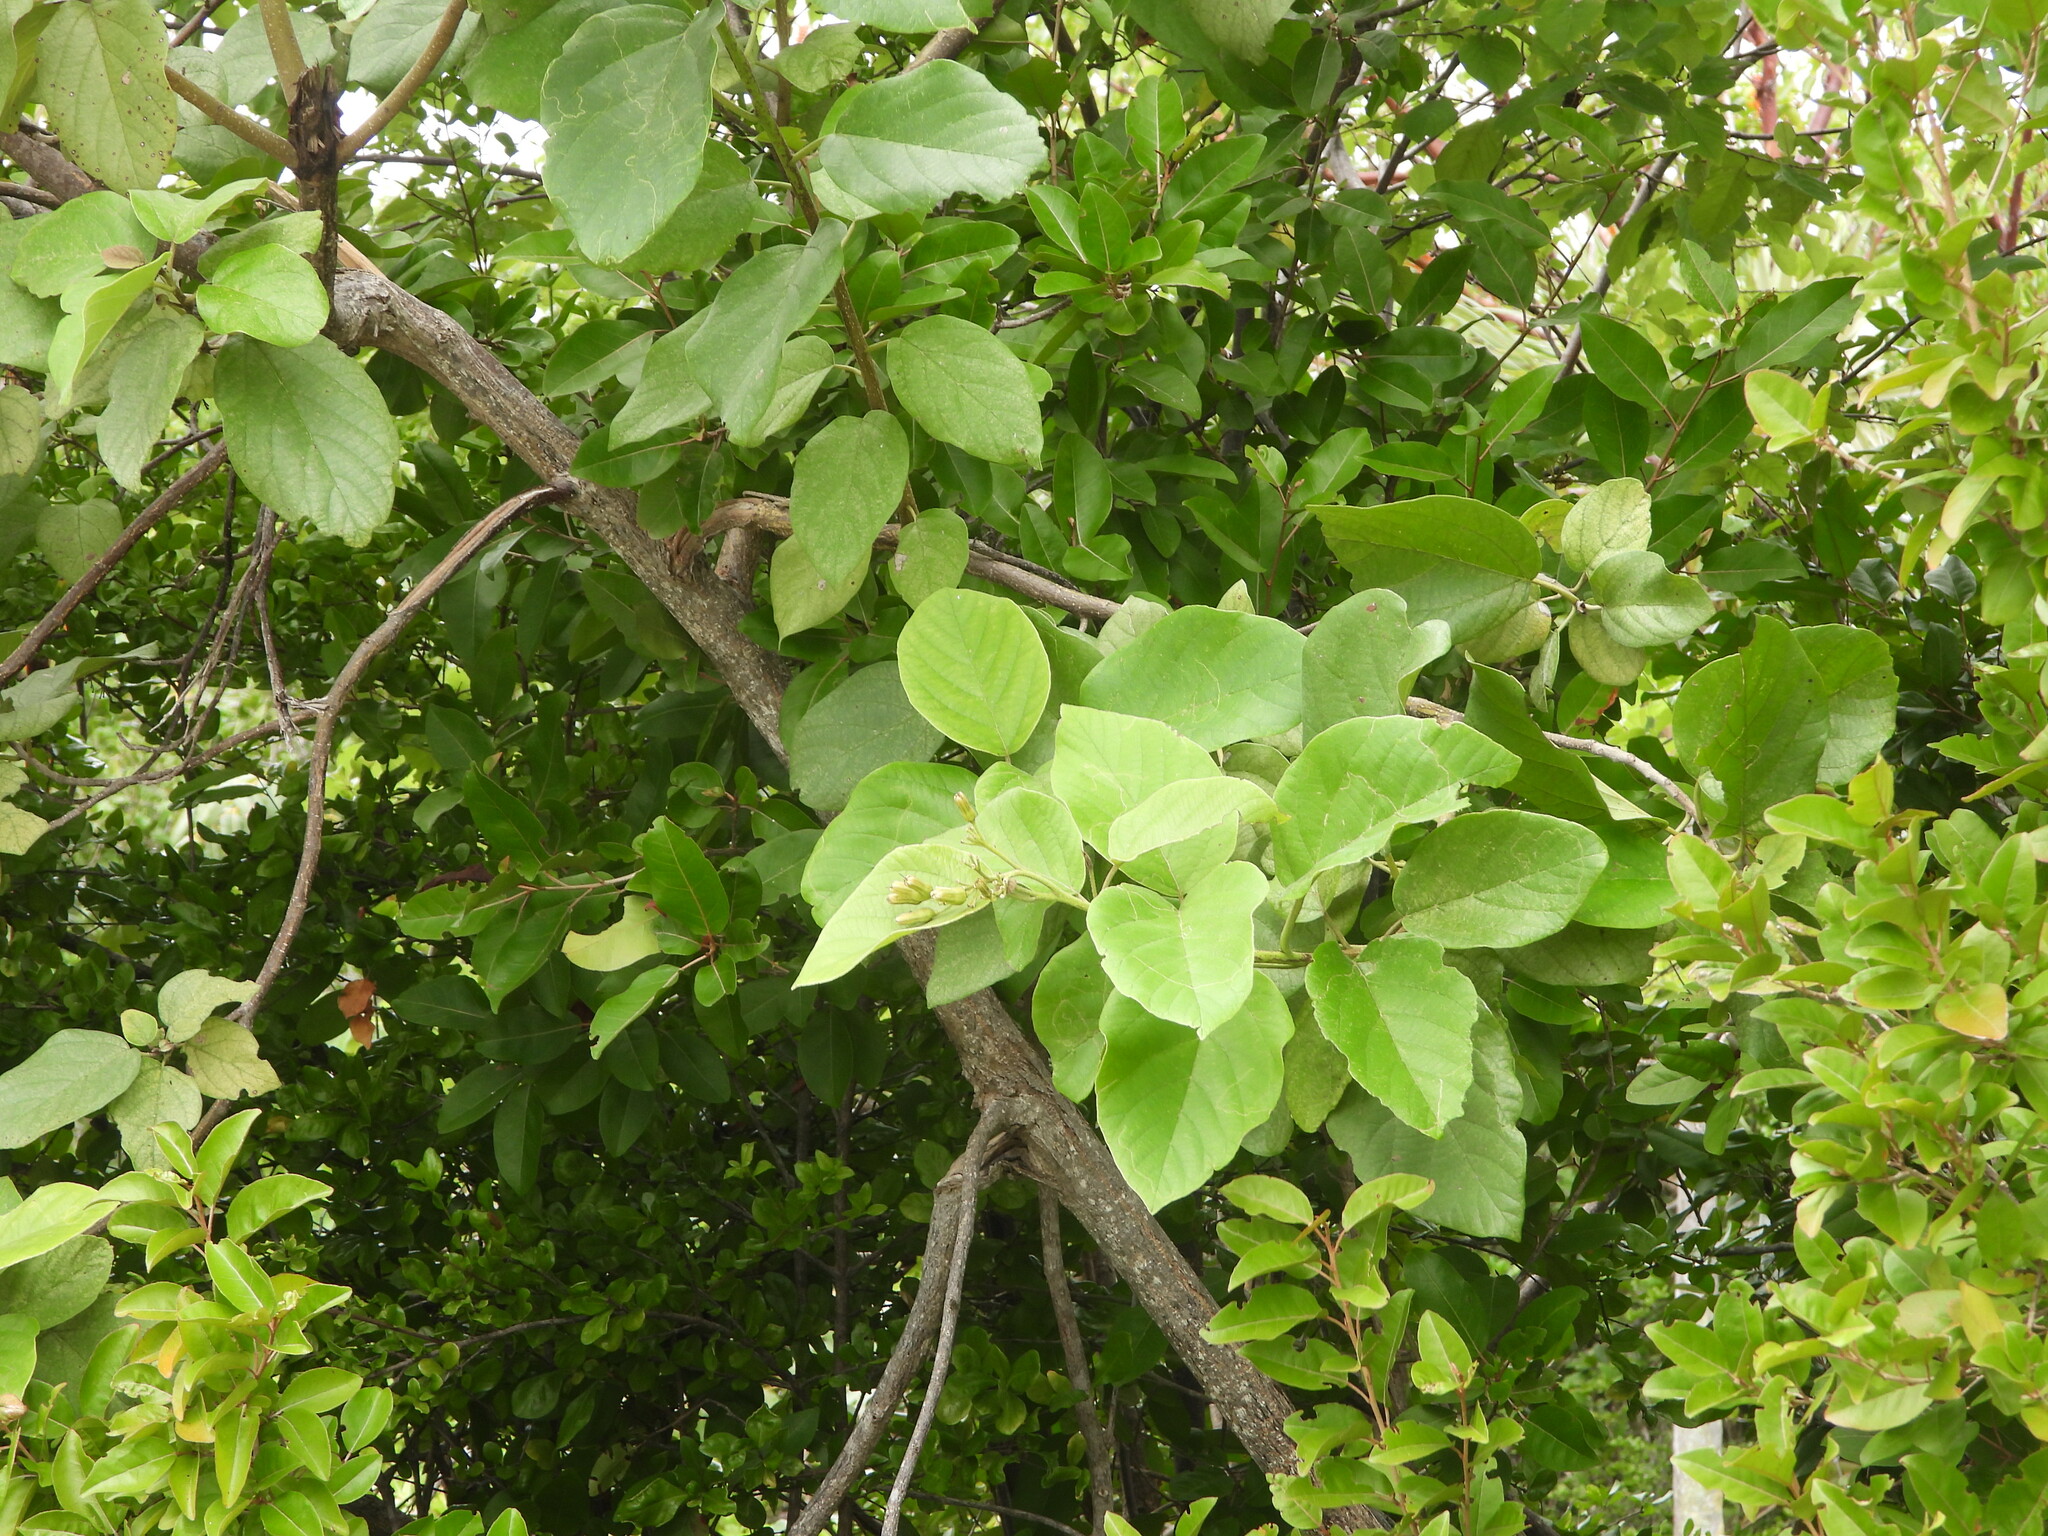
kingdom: Plantae
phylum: Tracheophyta
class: Magnoliopsida
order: Boraginales
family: Cordiaceae
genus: Cordia
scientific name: Cordia sebestena
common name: Largeleaf geigertree
